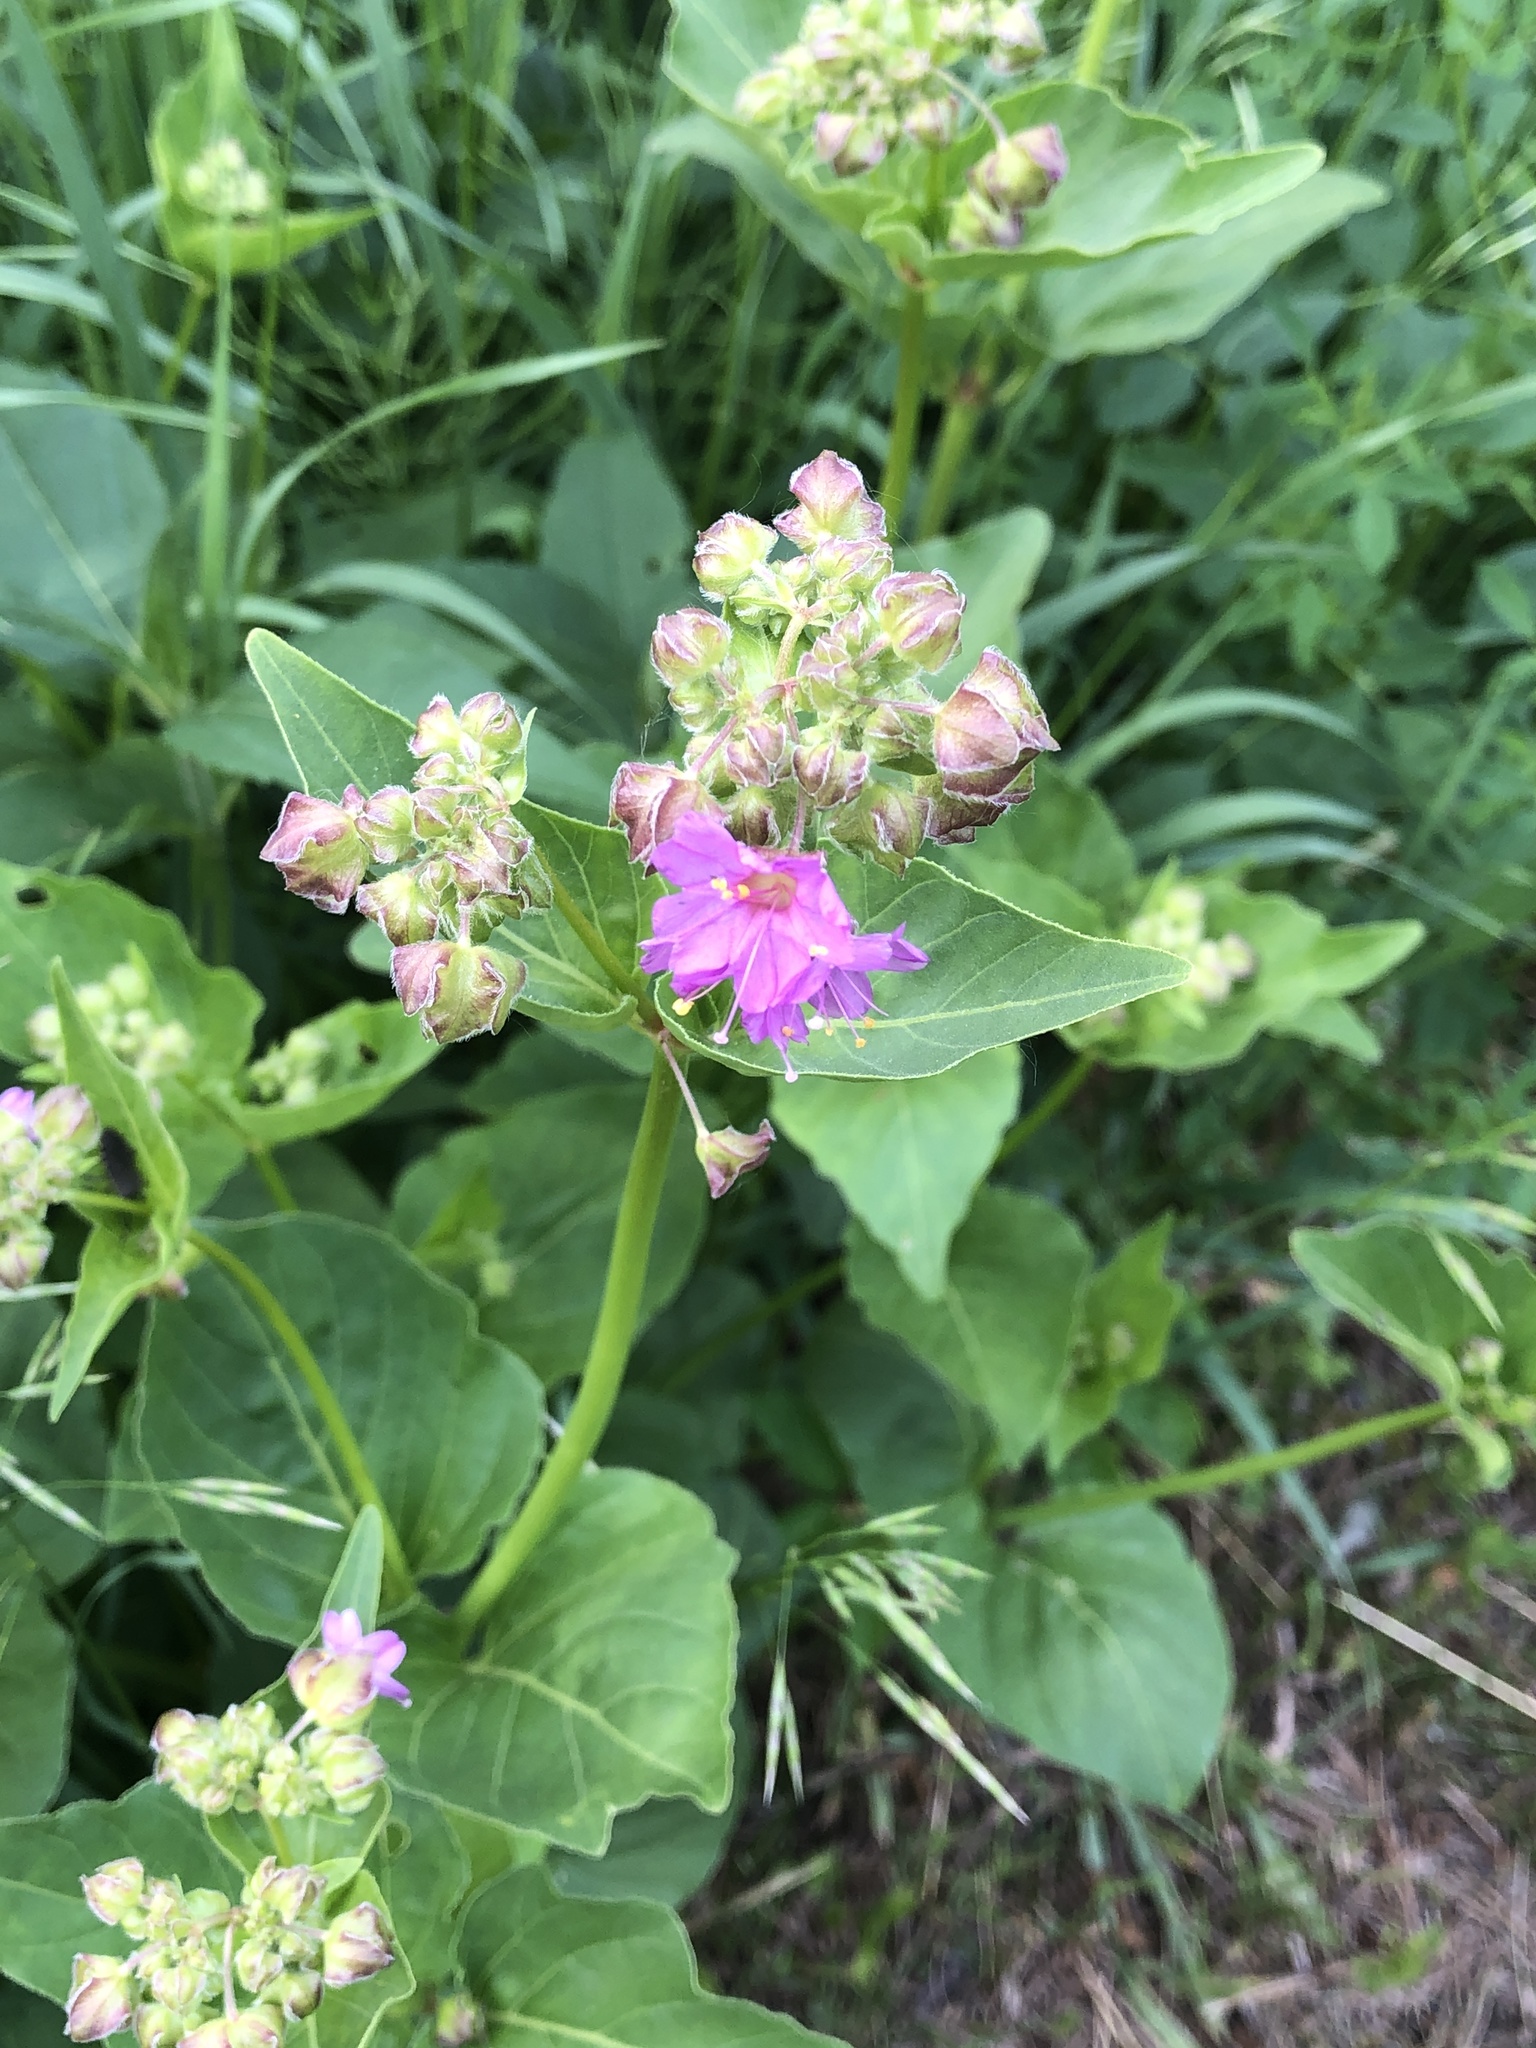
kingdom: Plantae
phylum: Tracheophyta
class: Magnoliopsida
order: Caryophyllales
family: Nyctaginaceae
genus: Mirabilis
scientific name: Mirabilis nyctaginea
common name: Umbrella wort
